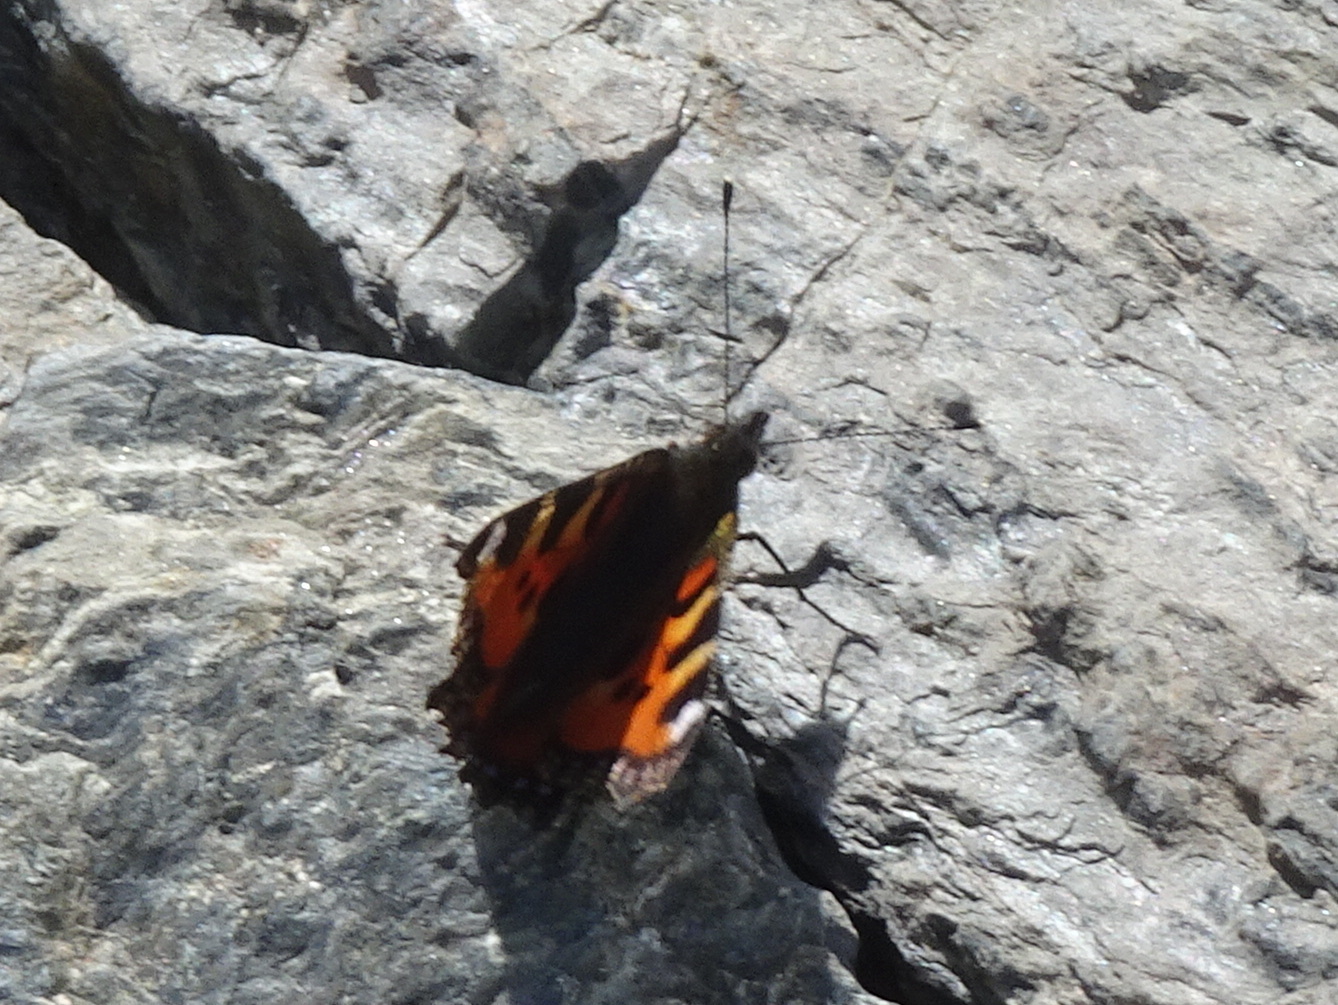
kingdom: Animalia
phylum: Arthropoda
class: Insecta
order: Lepidoptera
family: Nymphalidae
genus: Aglais
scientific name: Aglais urticae
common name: Small tortoiseshell
